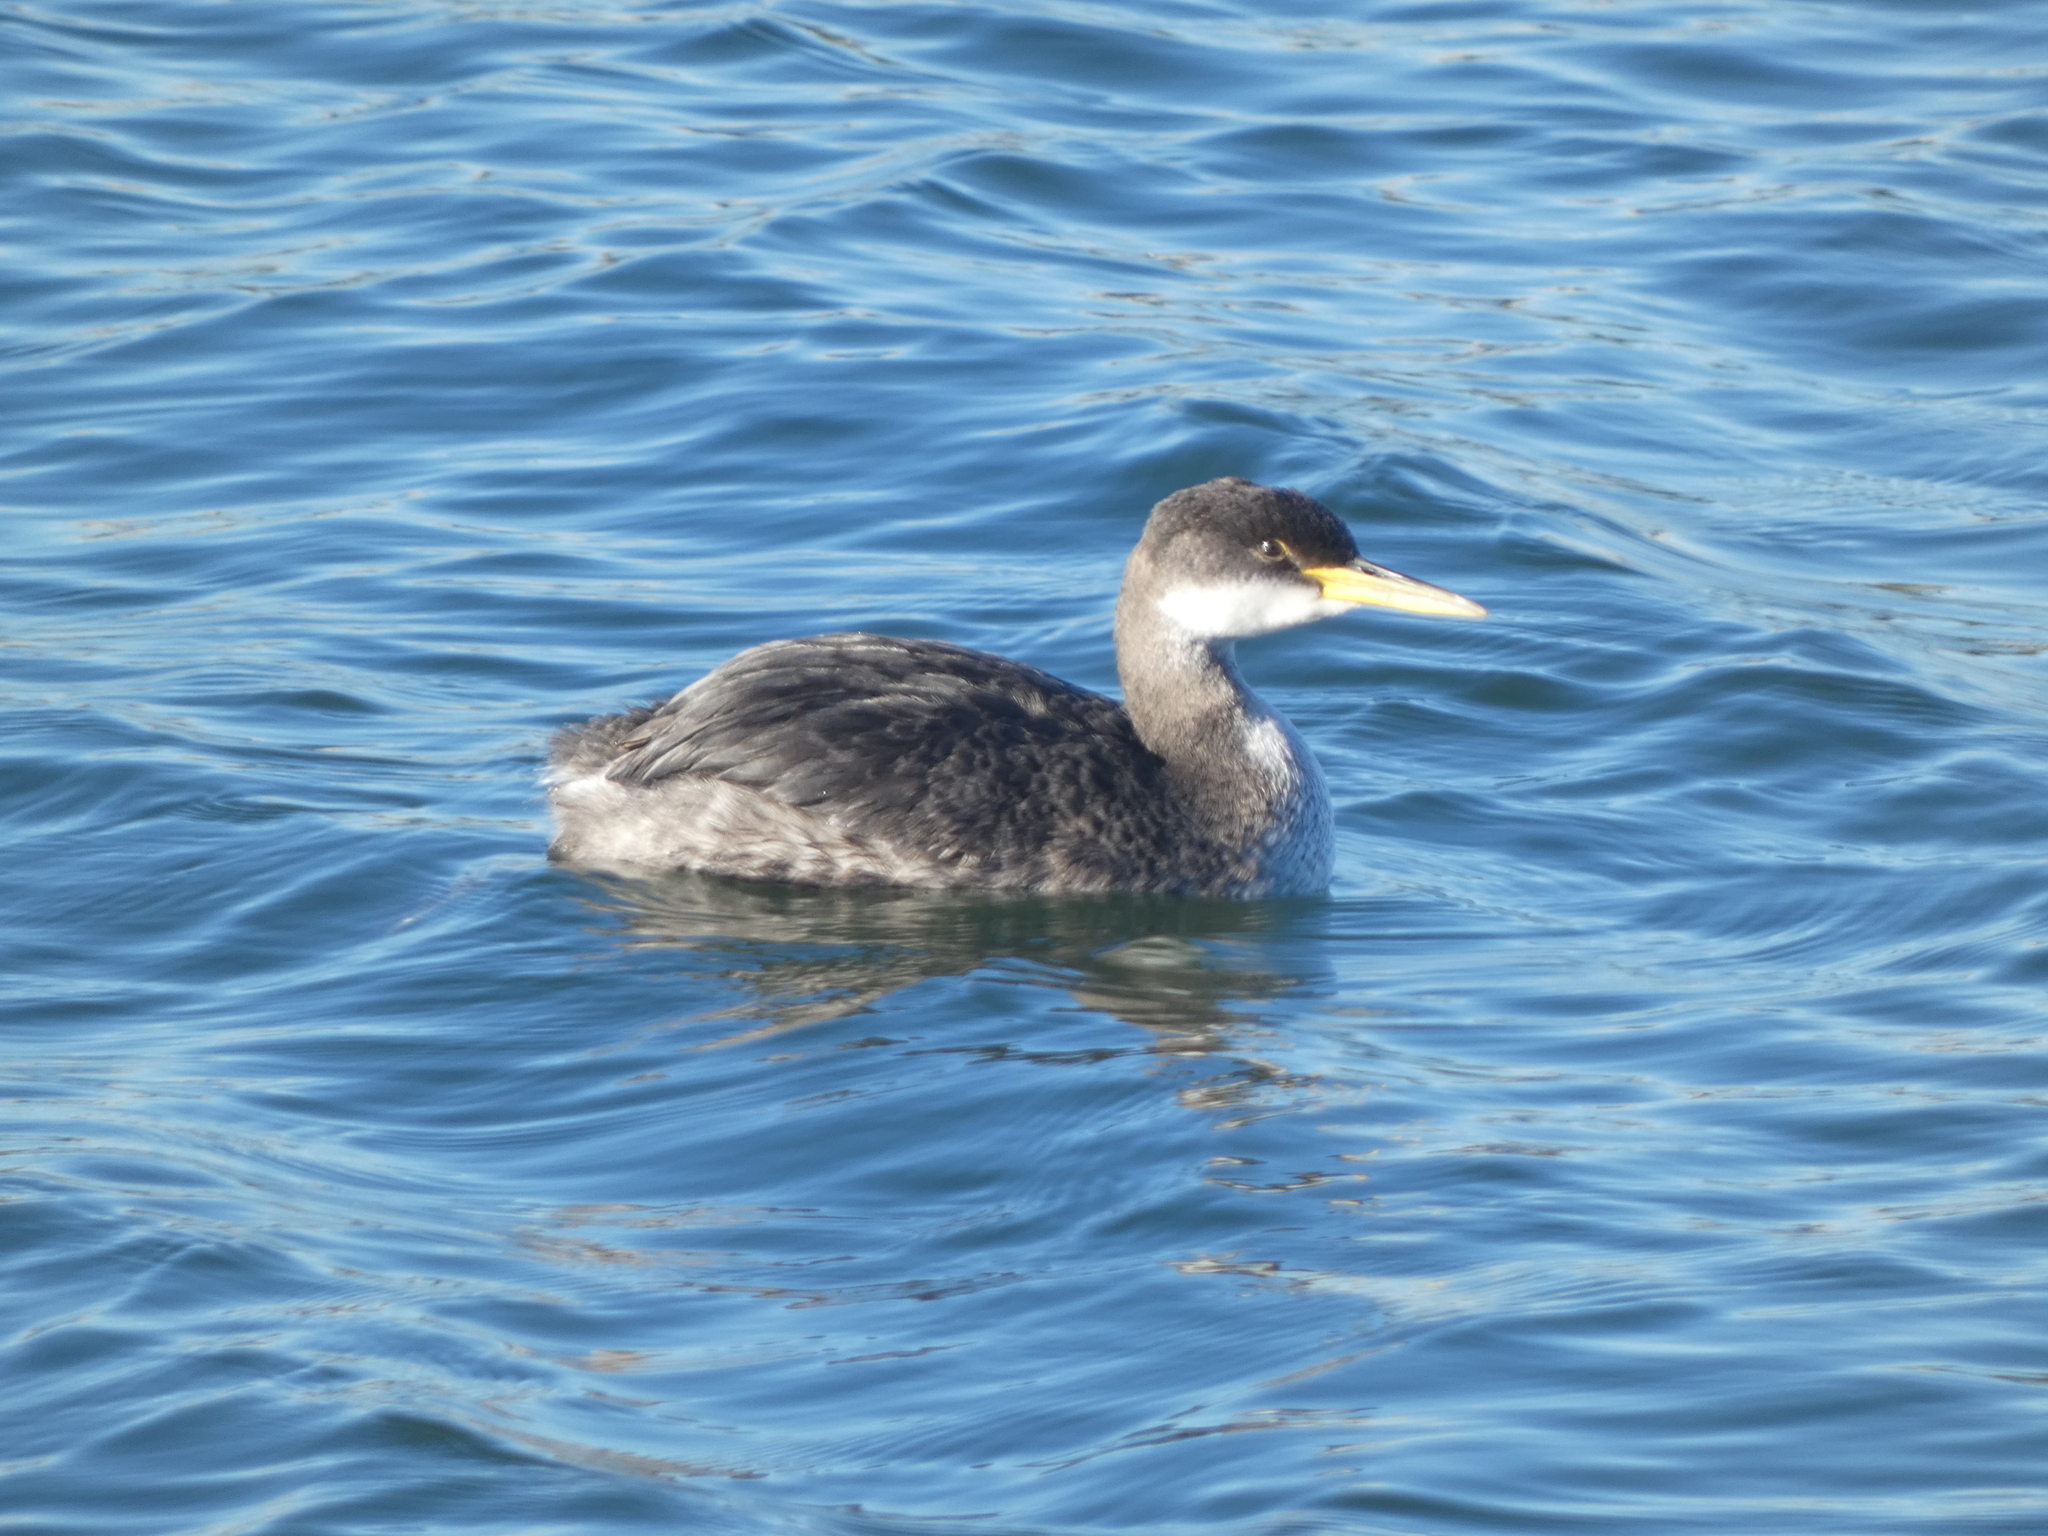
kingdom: Animalia
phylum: Chordata
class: Aves
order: Podicipediformes
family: Podicipedidae
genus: Podiceps
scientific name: Podiceps grisegena
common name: Red-necked grebe
